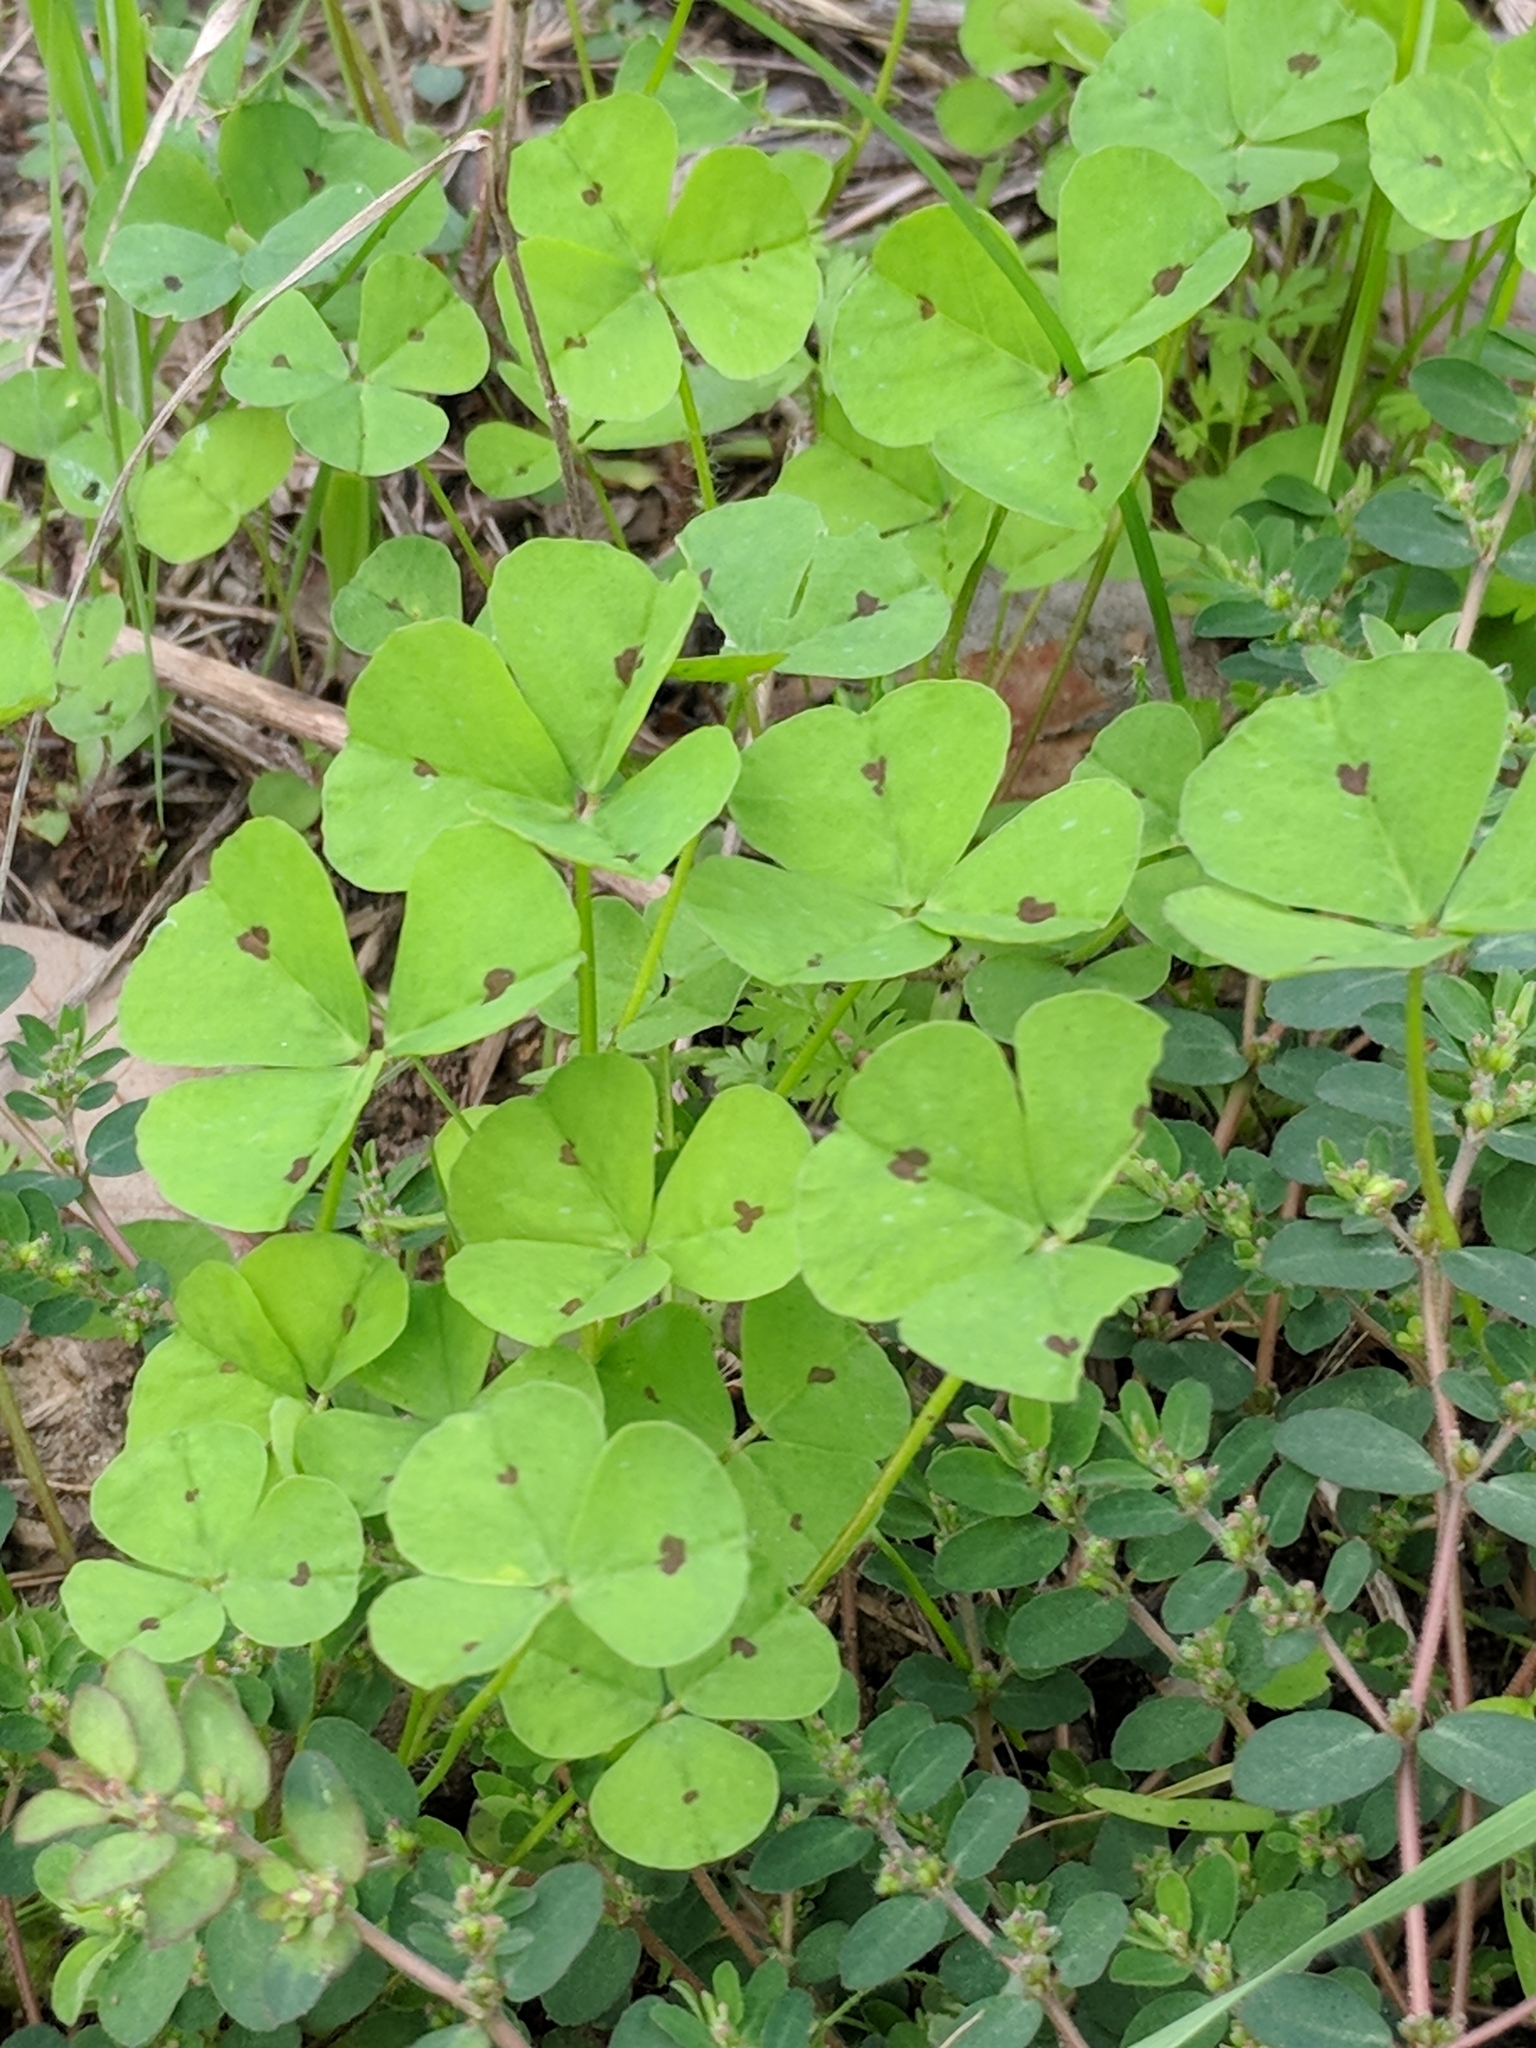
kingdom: Plantae
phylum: Tracheophyta
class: Magnoliopsida
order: Fabales
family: Fabaceae
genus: Medicago
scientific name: Medicago arabica
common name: Spotted medick
